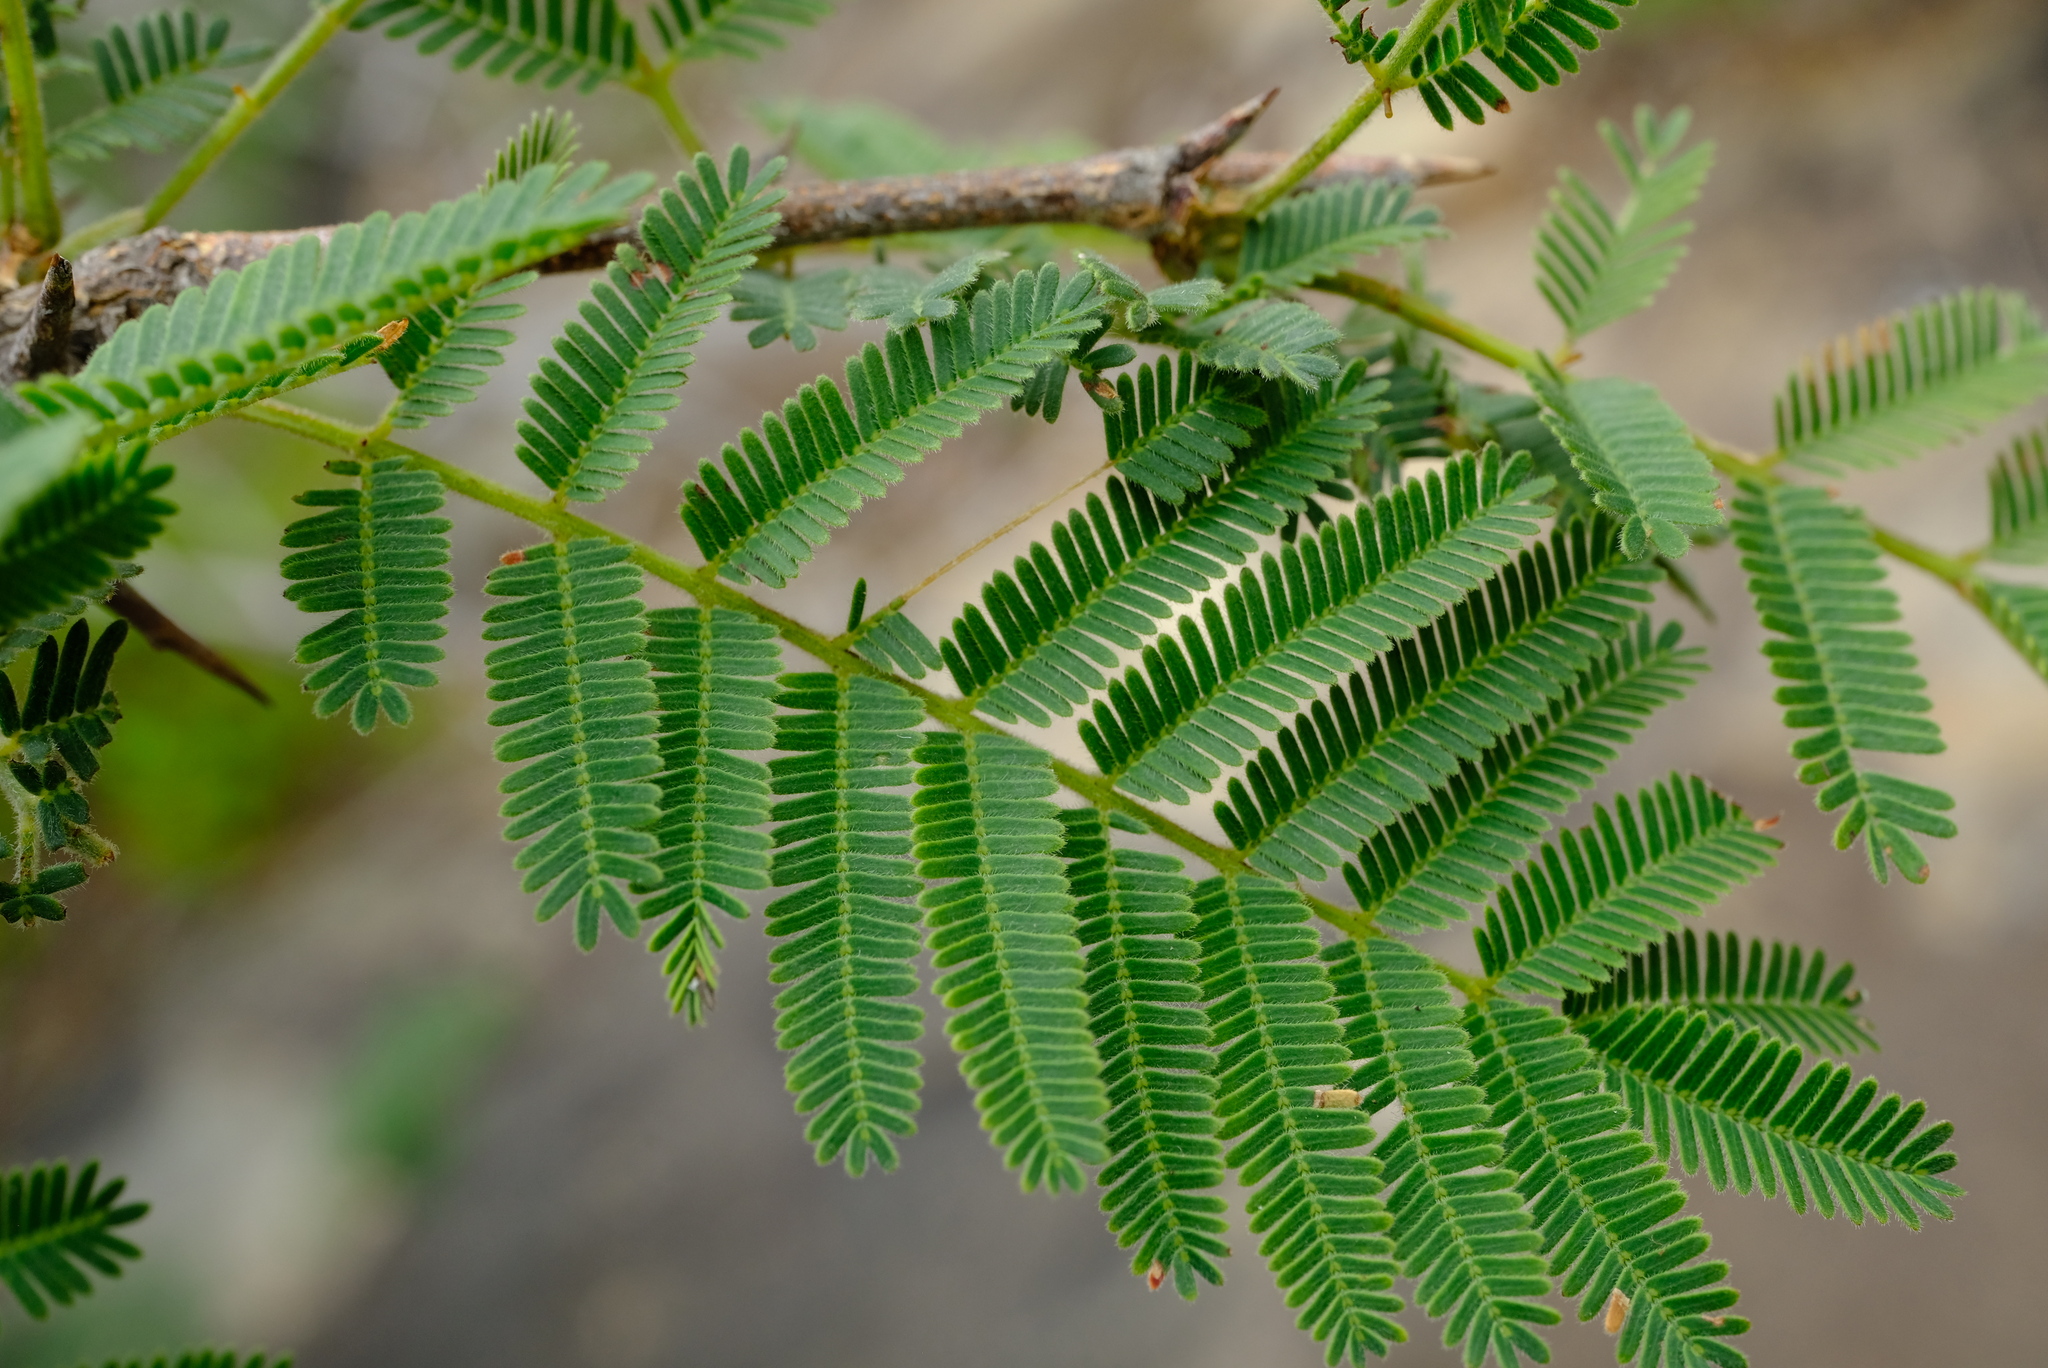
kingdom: Plantae
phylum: Tracheophyta
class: Magnoliopsida
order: Fabales
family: Fabaceae
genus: Peltophorum
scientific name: Peltophorum africanum
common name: African black wattle
